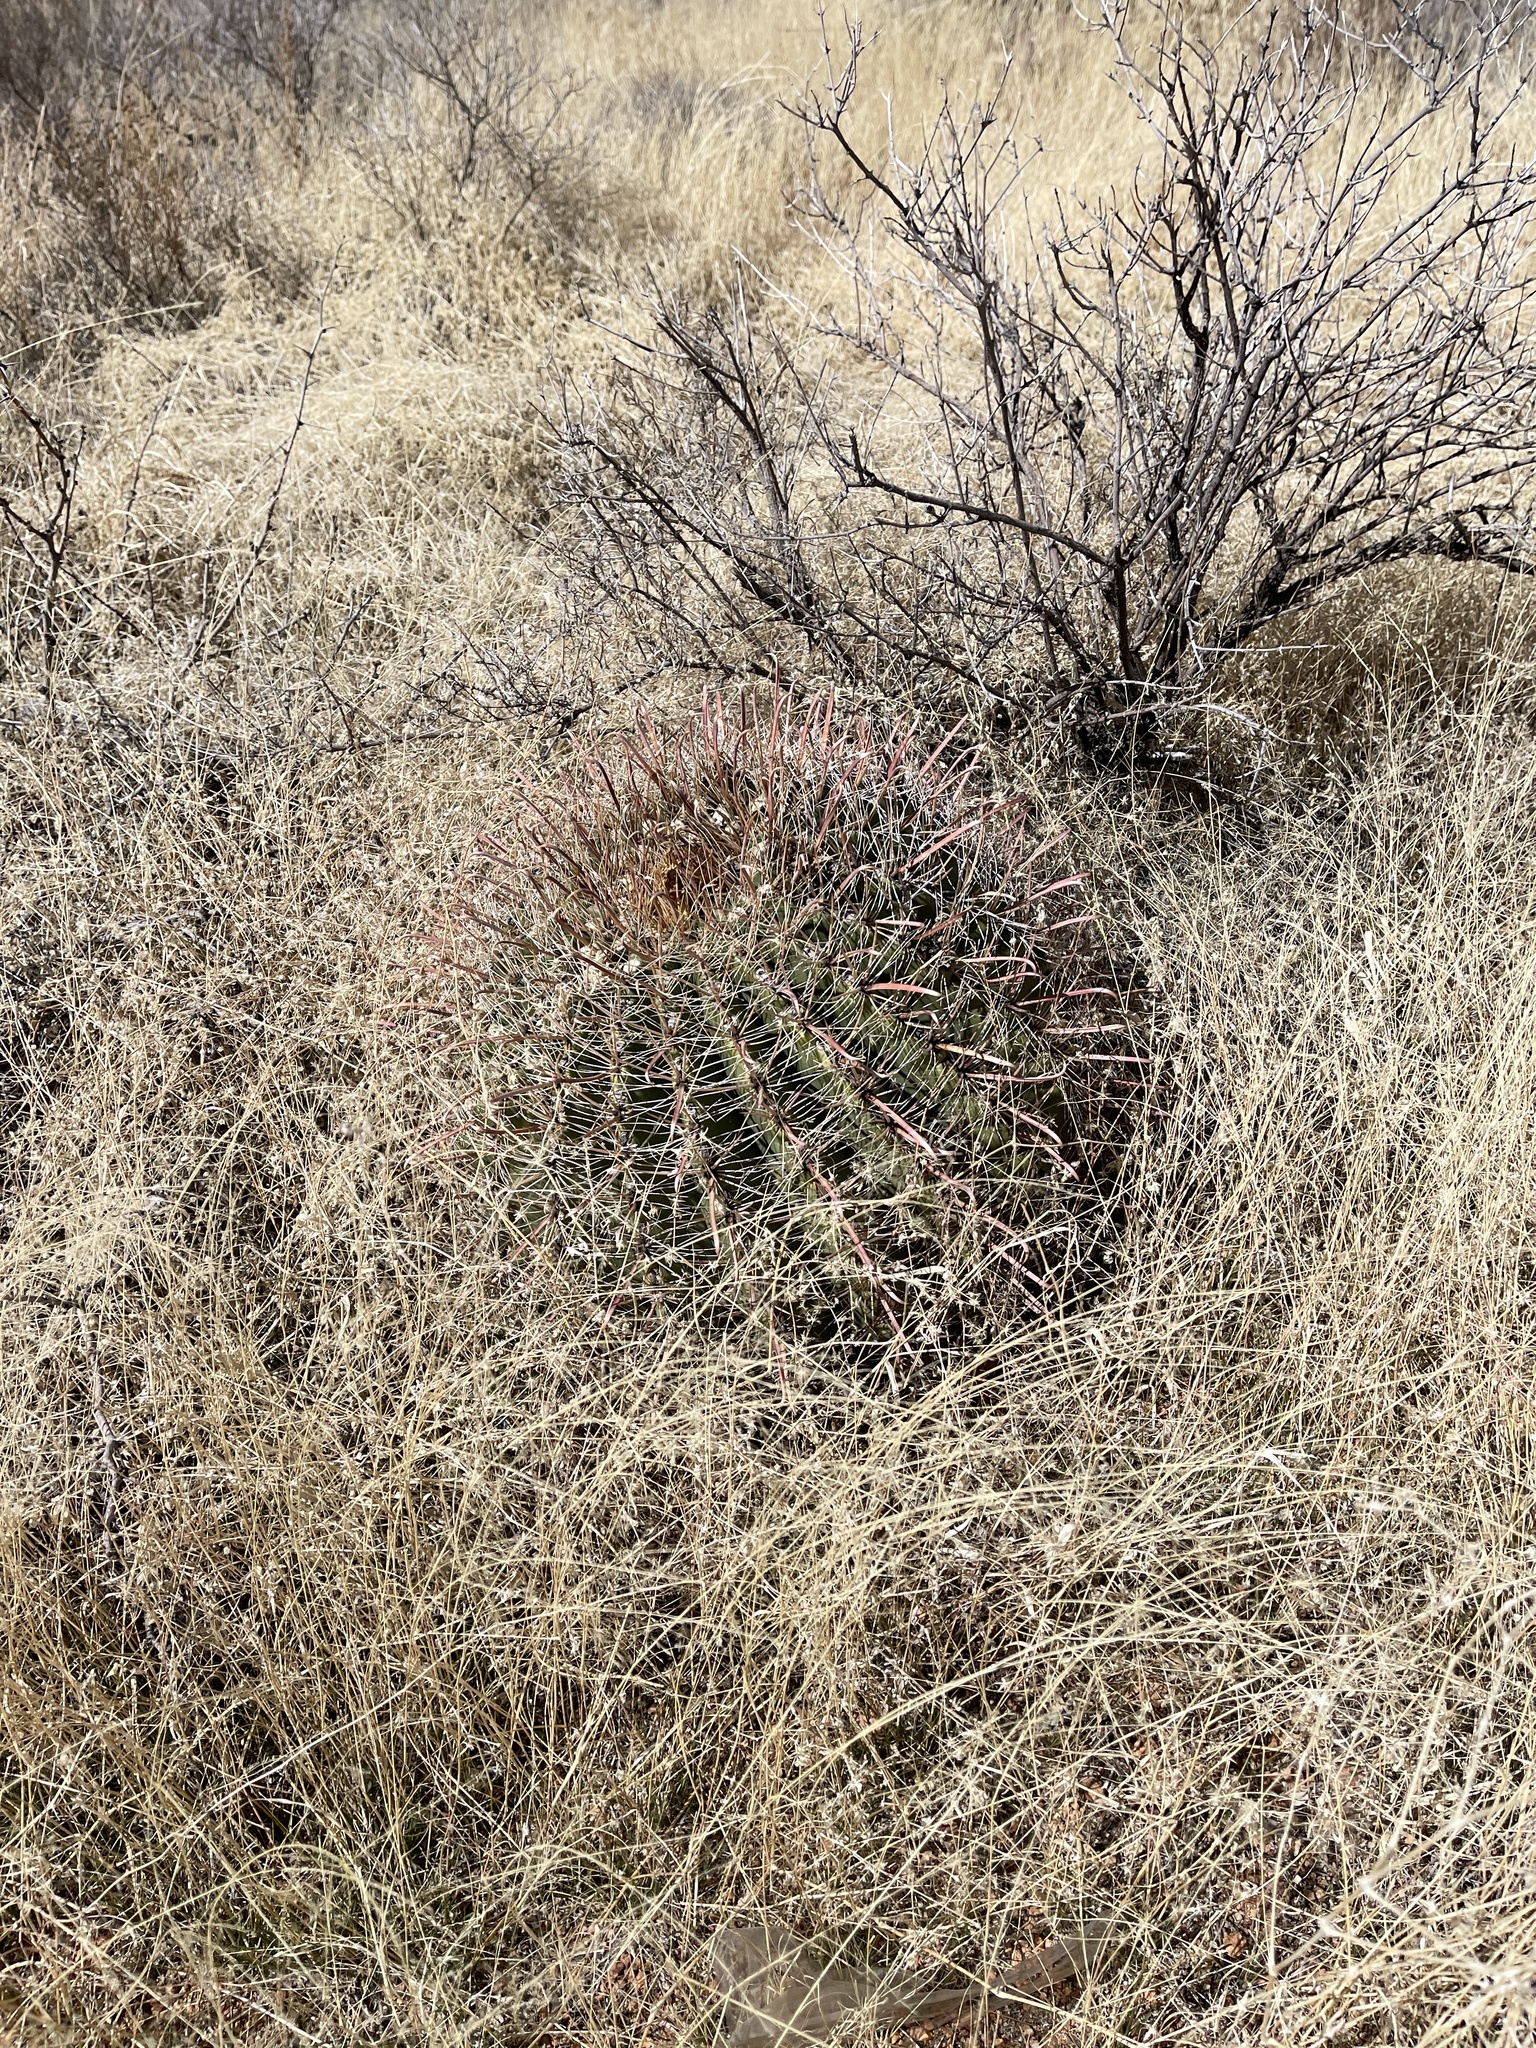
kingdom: Plantae
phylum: Tracheophyta
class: Magnoliopsida
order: Caryophyllales
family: Cactaceae
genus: Ferocactus
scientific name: Ferocactus wislizeni
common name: Candy barrel cactus
